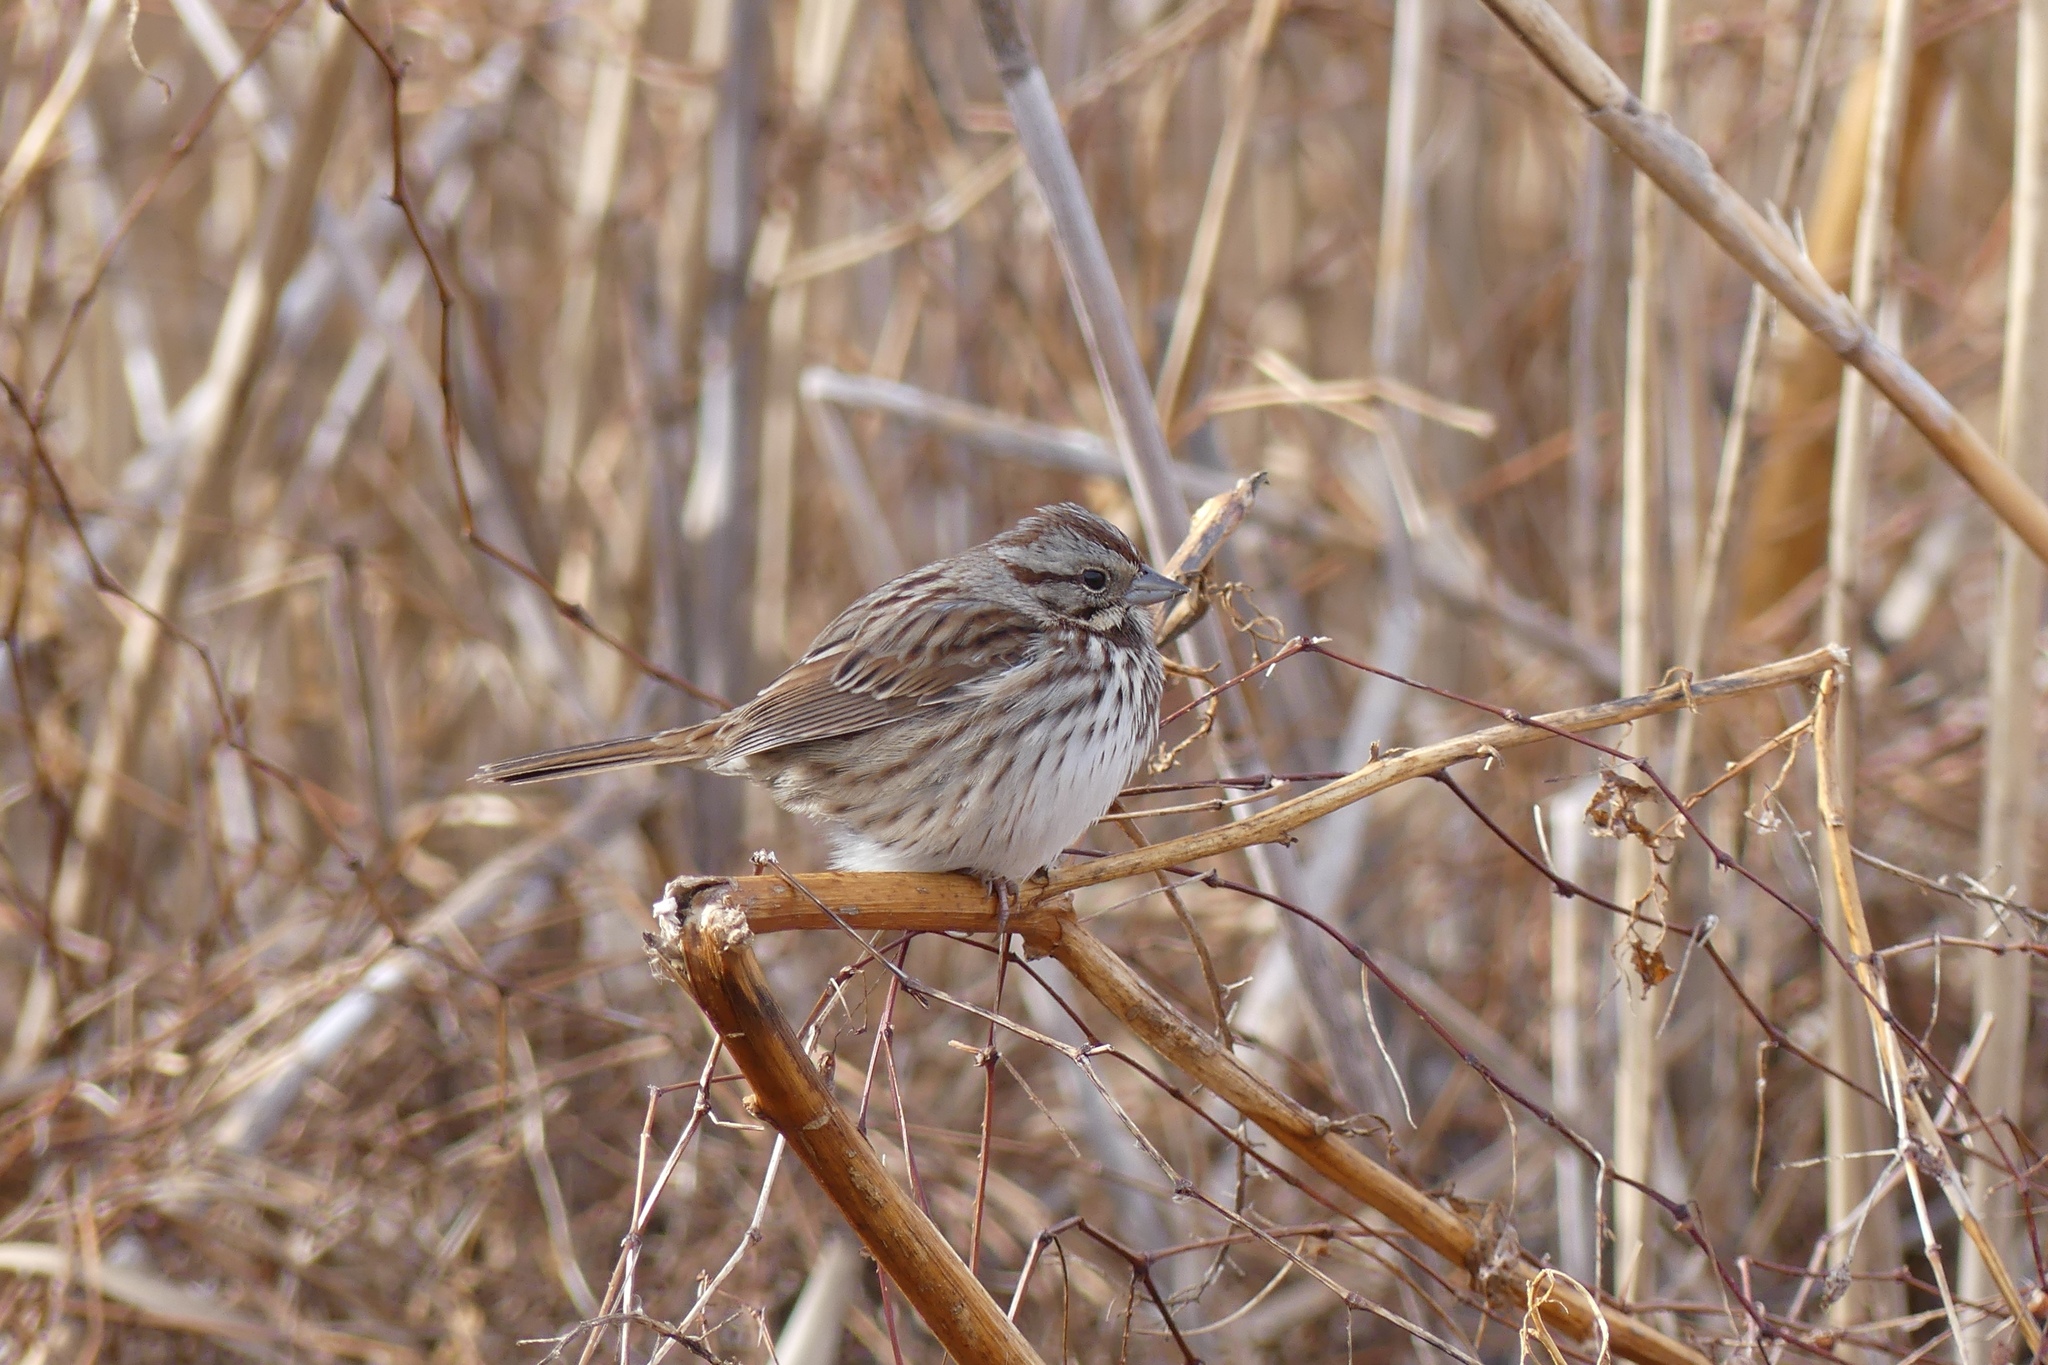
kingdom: Animalia
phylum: Chordata
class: Aves
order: Passeriformes
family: Passerellidae
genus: Melospiza
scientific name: Melospiza melodia
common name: Song sparrow
